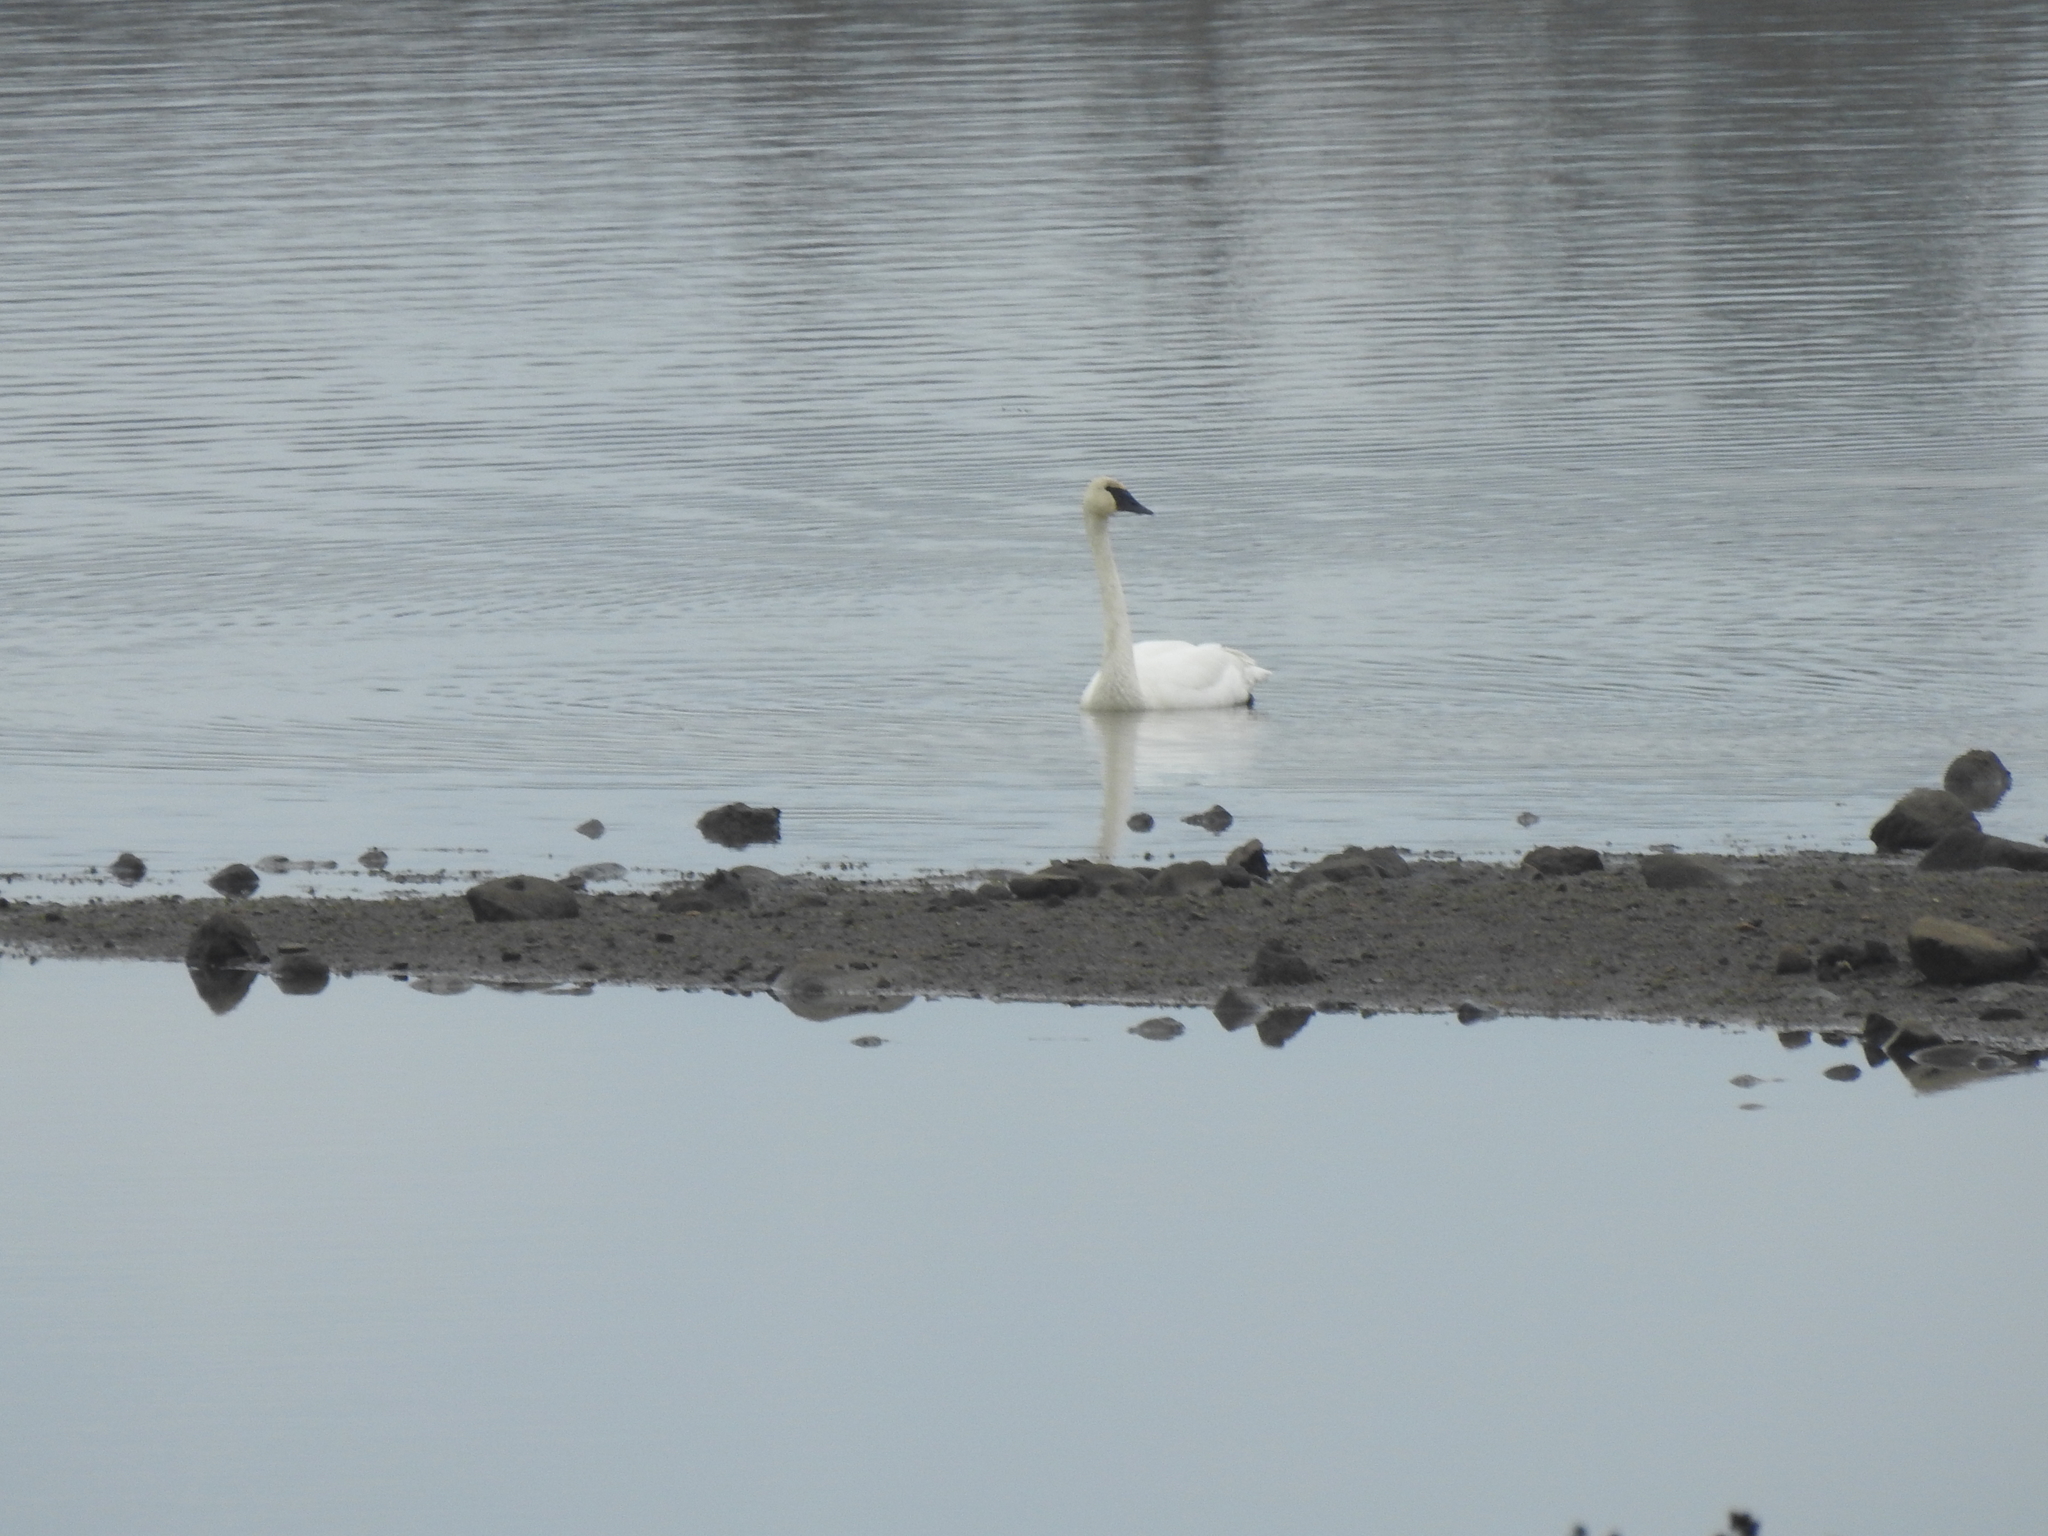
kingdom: Animalia
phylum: Chordata
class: Aves
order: Anseriformes
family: Anatidae
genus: Cygnus
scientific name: Cygnus buccinator
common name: Trumpeter swan
